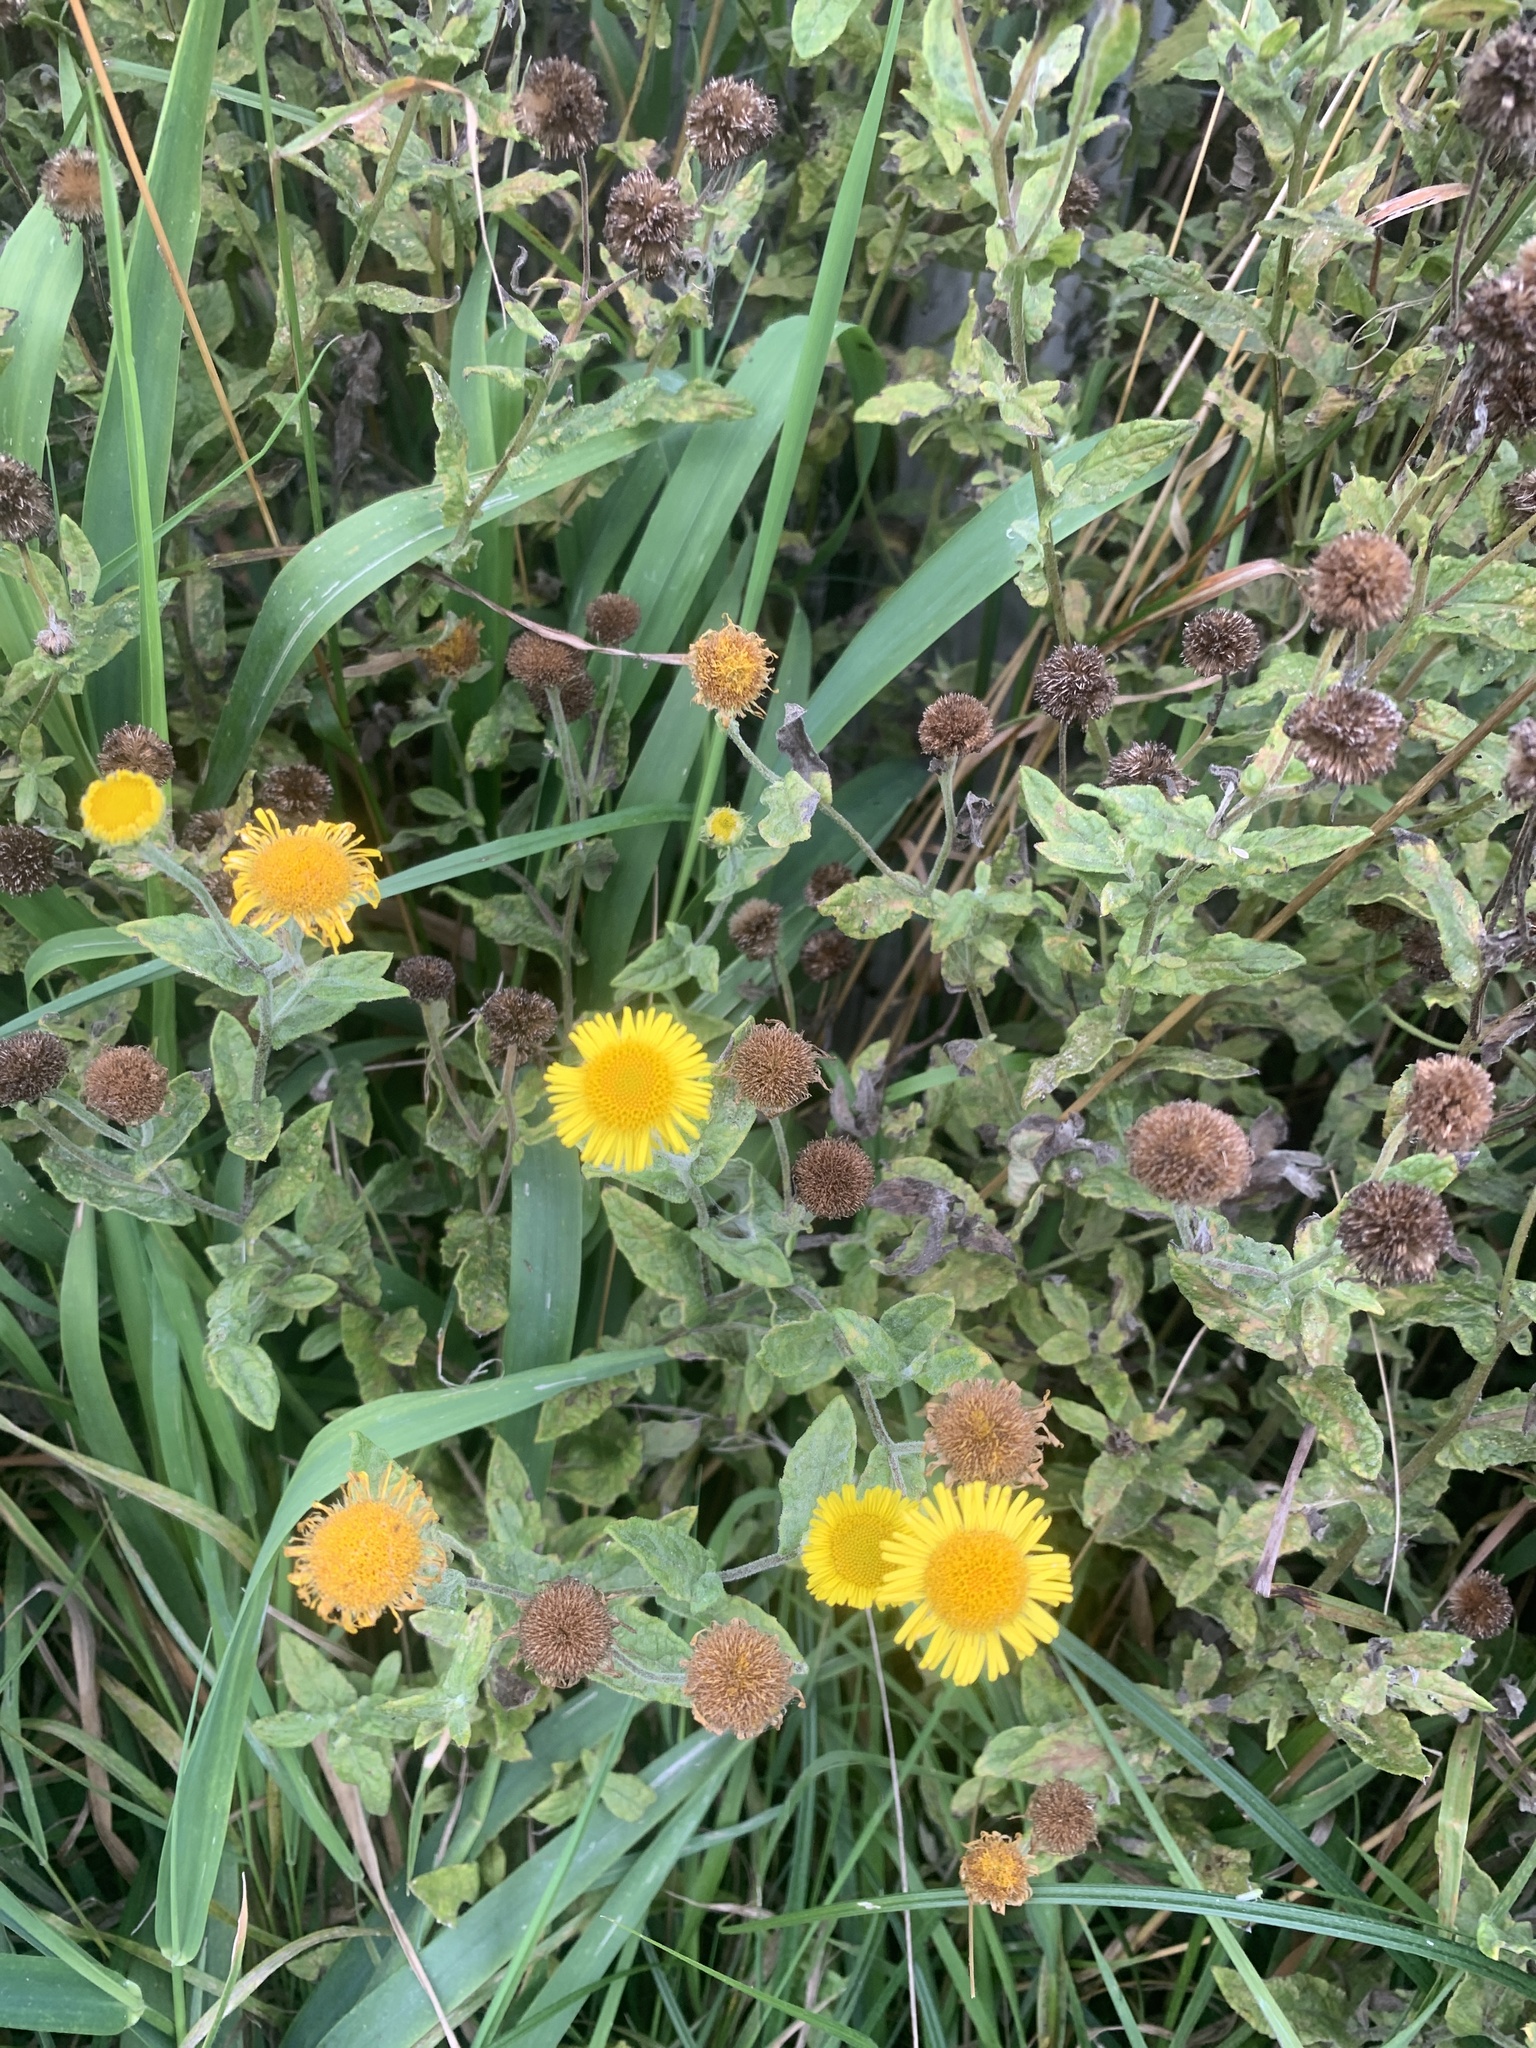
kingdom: Plantae
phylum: Tracheophyta
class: Magnoliopsida
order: Asterales
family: Asteraceae
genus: Pulicaria
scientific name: Pulicaria dysenterica
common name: Common fleabane
